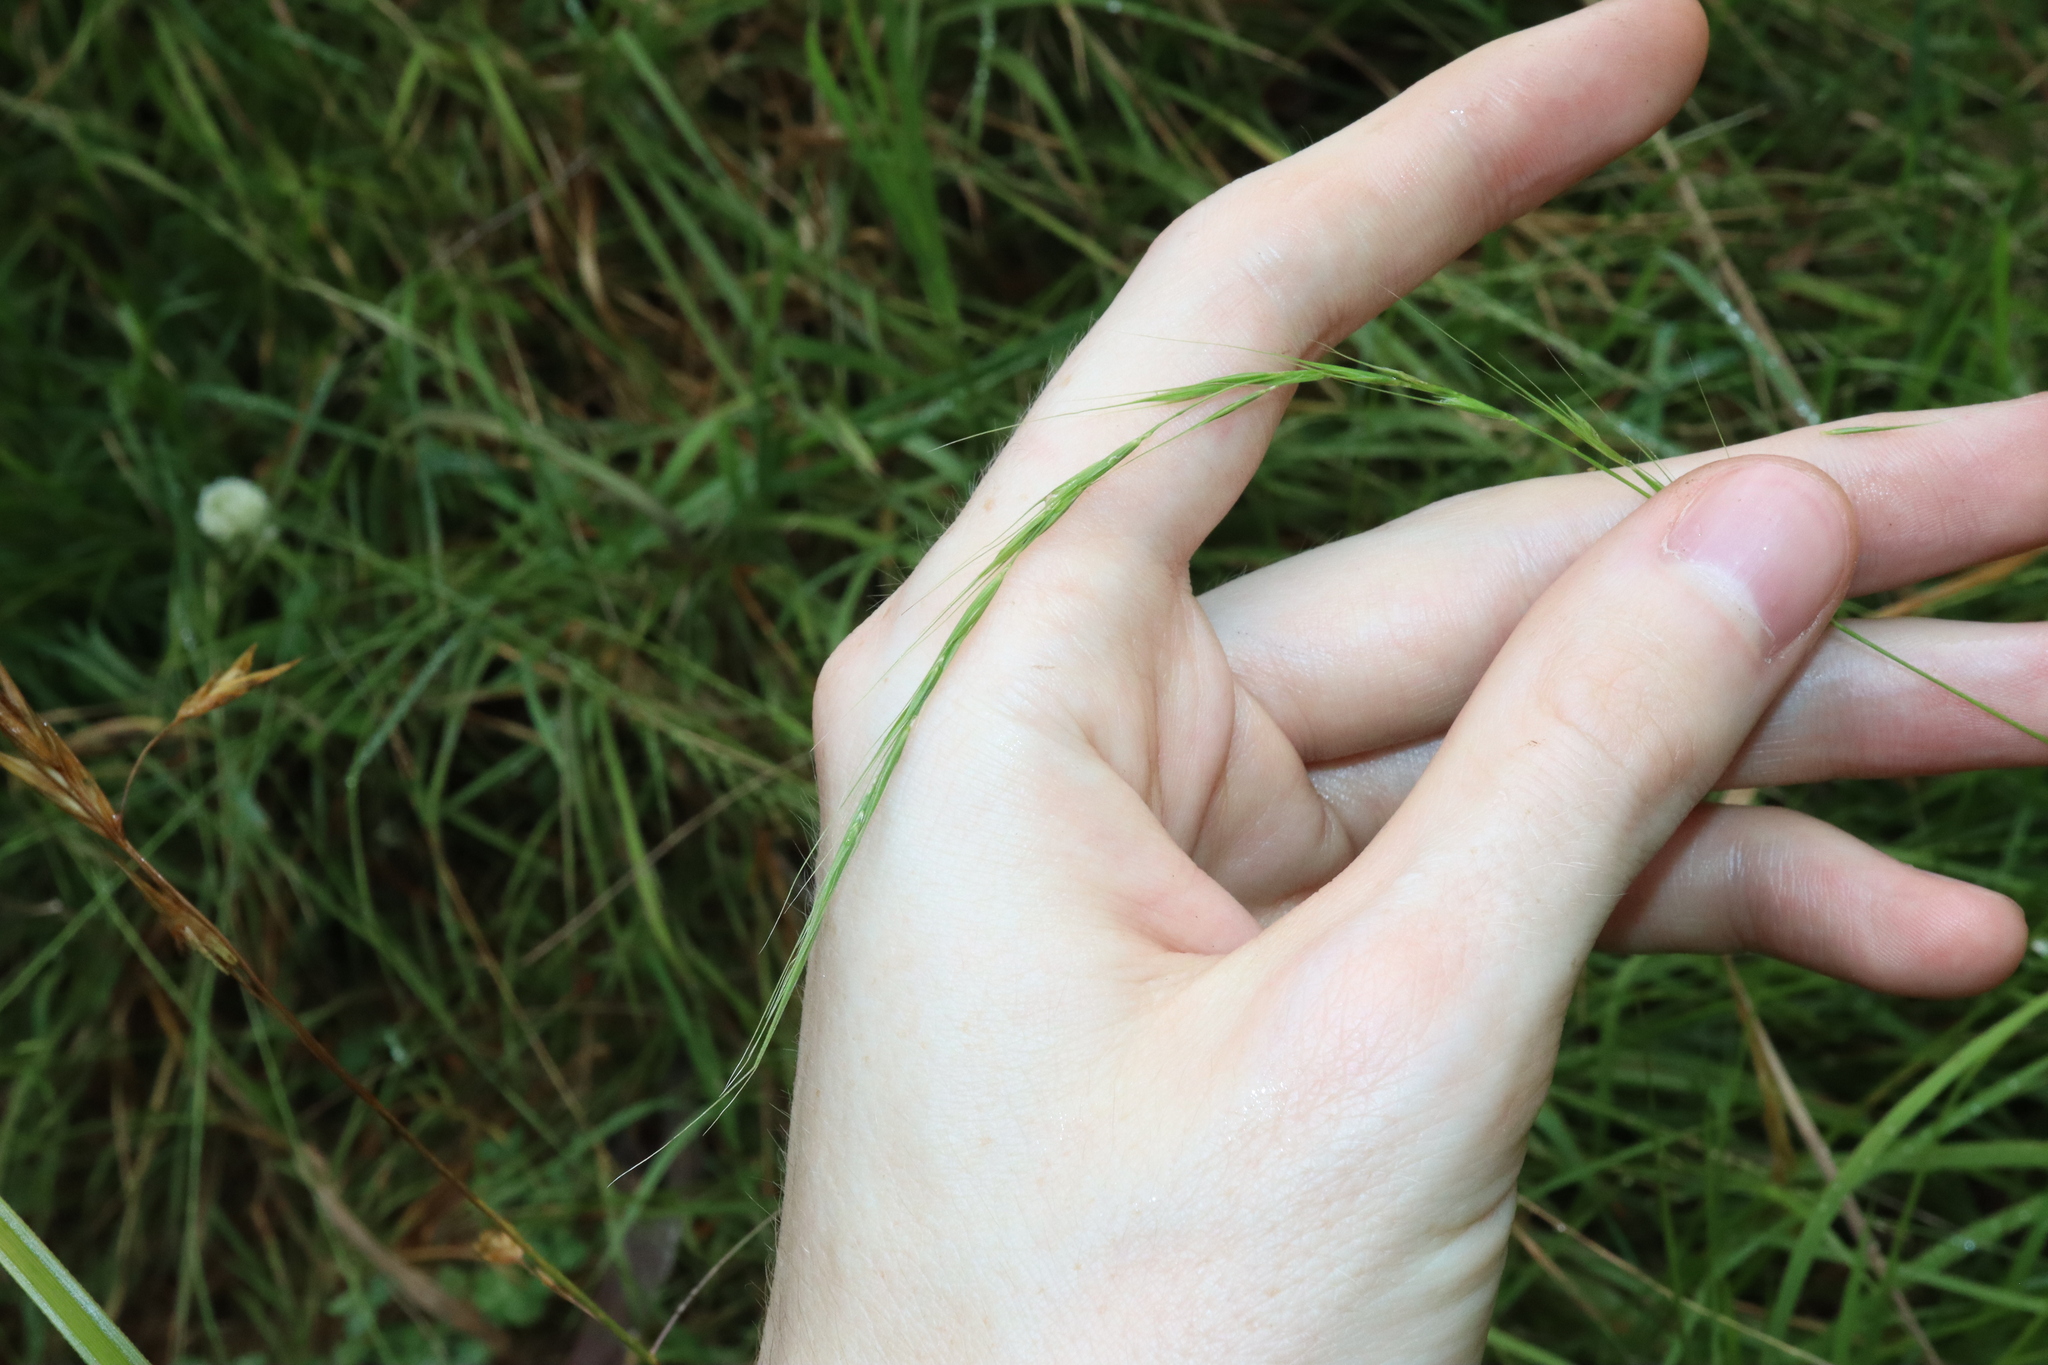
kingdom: Plantae
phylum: Tracheophyta
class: Liliopsida
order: Poales
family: Poaceae
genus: Microlaena
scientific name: Microlaena stipoides
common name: Meadow ricegrass
